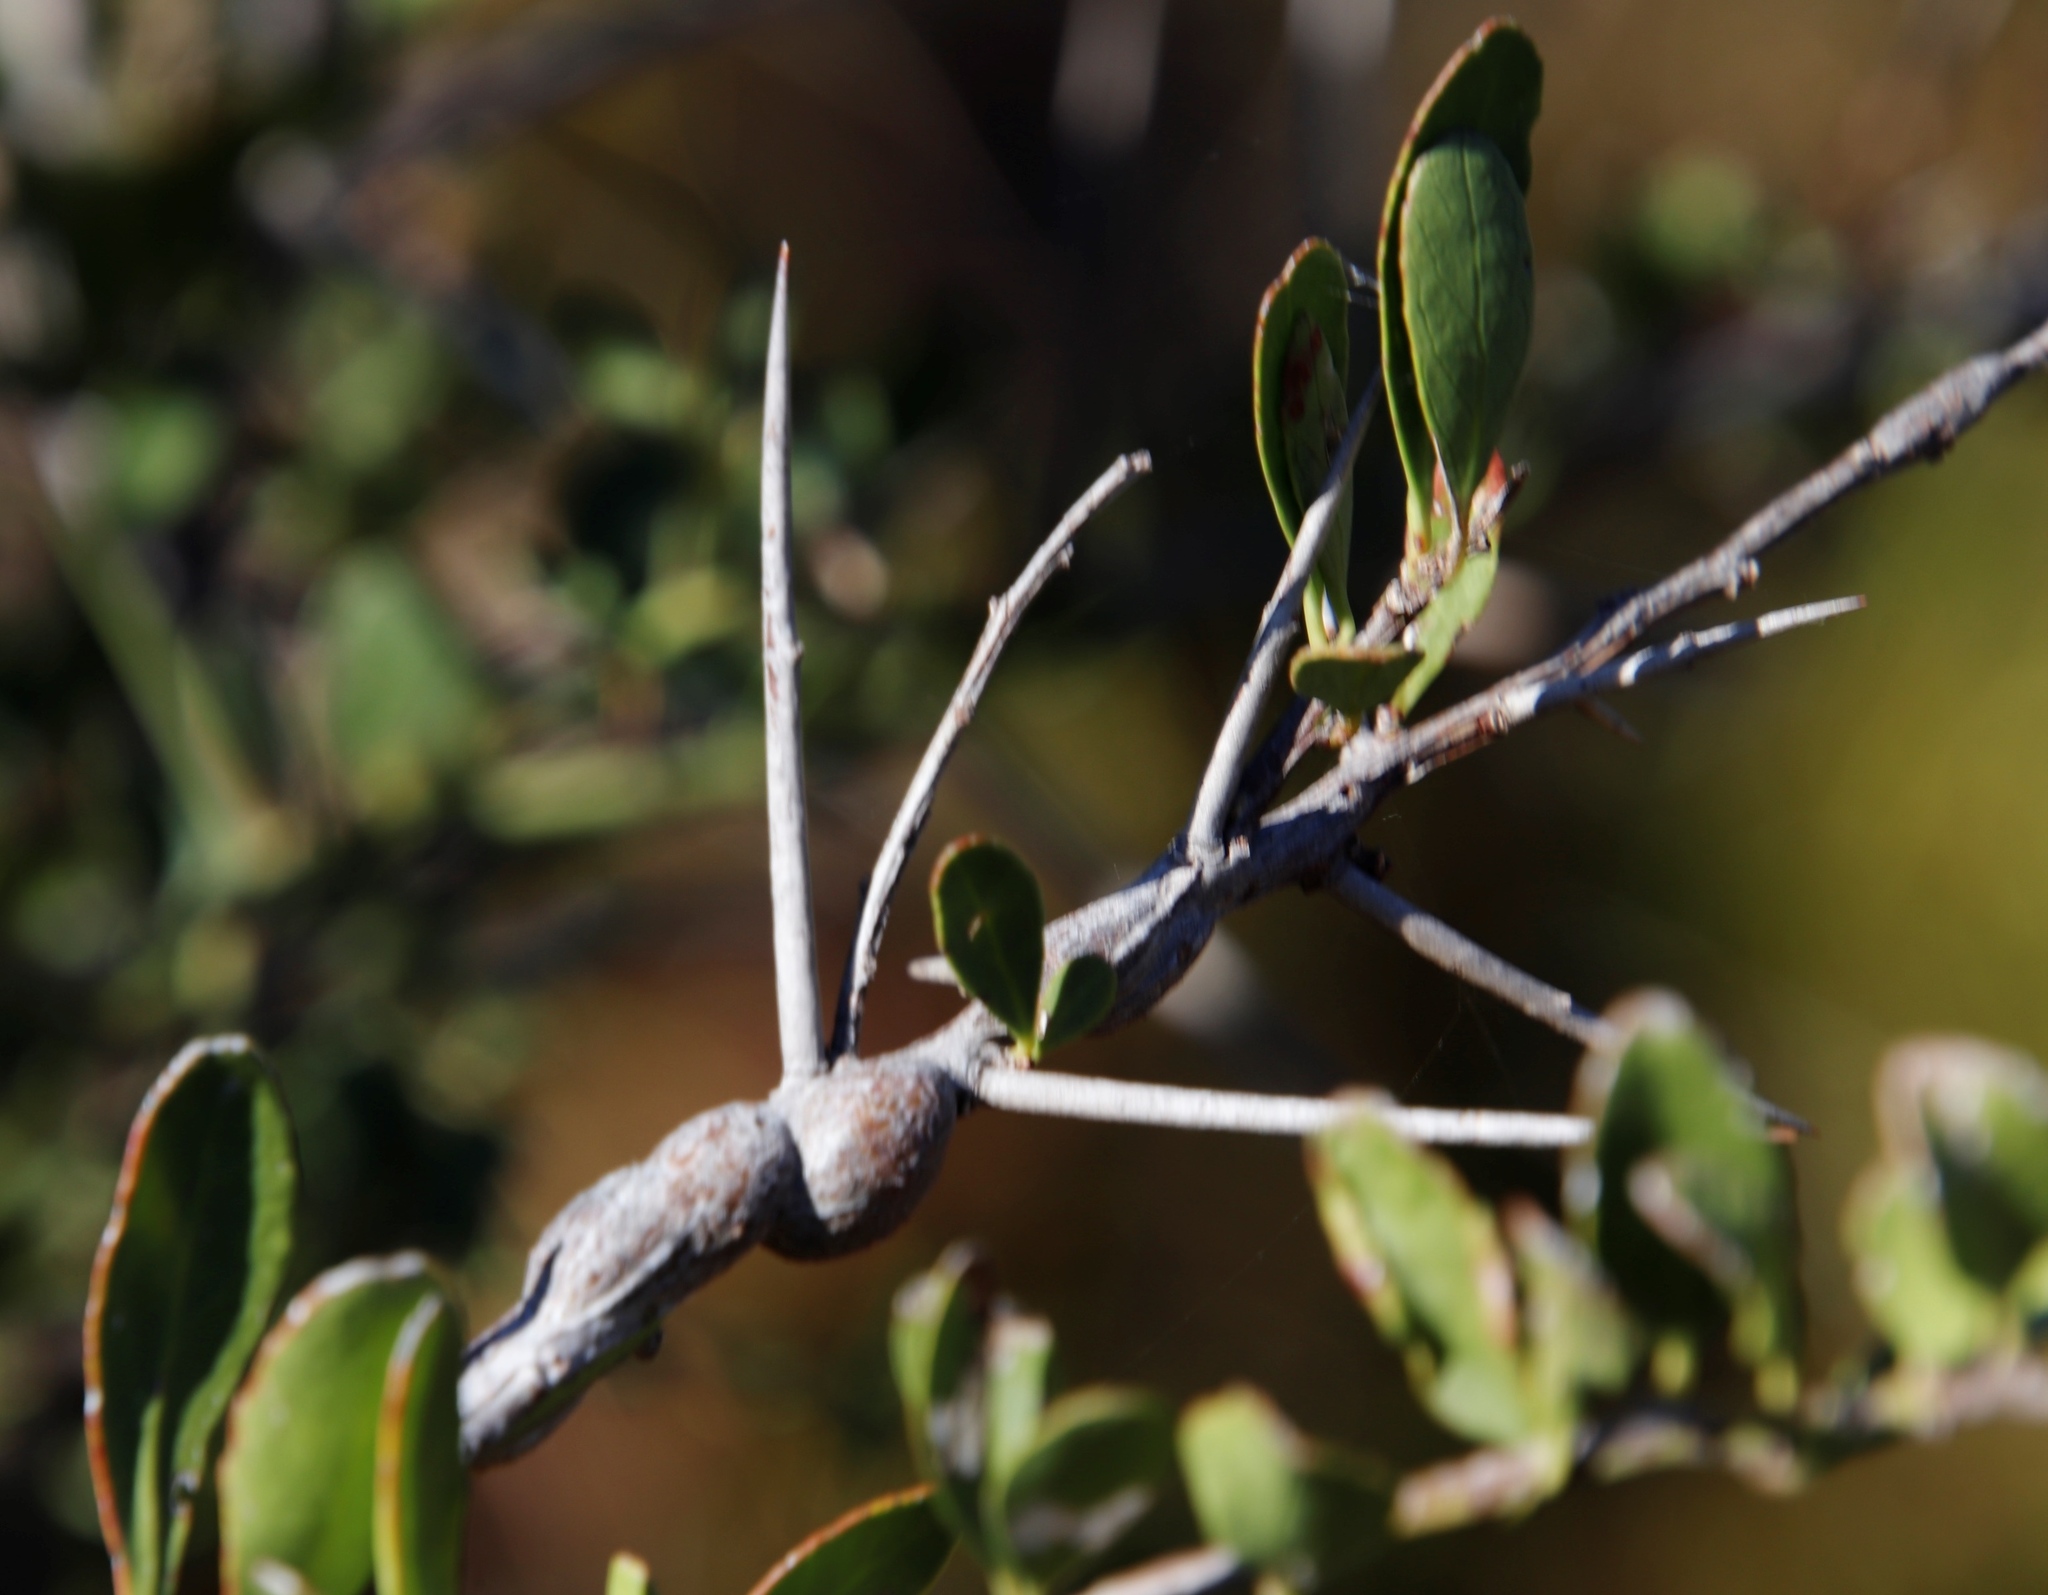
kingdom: Plantae
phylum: Tracheophyta
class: Magnoliopsida
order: Celastrales
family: Celastraceae
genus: Gymnosporia
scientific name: Gymnosporia buxifolia
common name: Common spike-thorn
